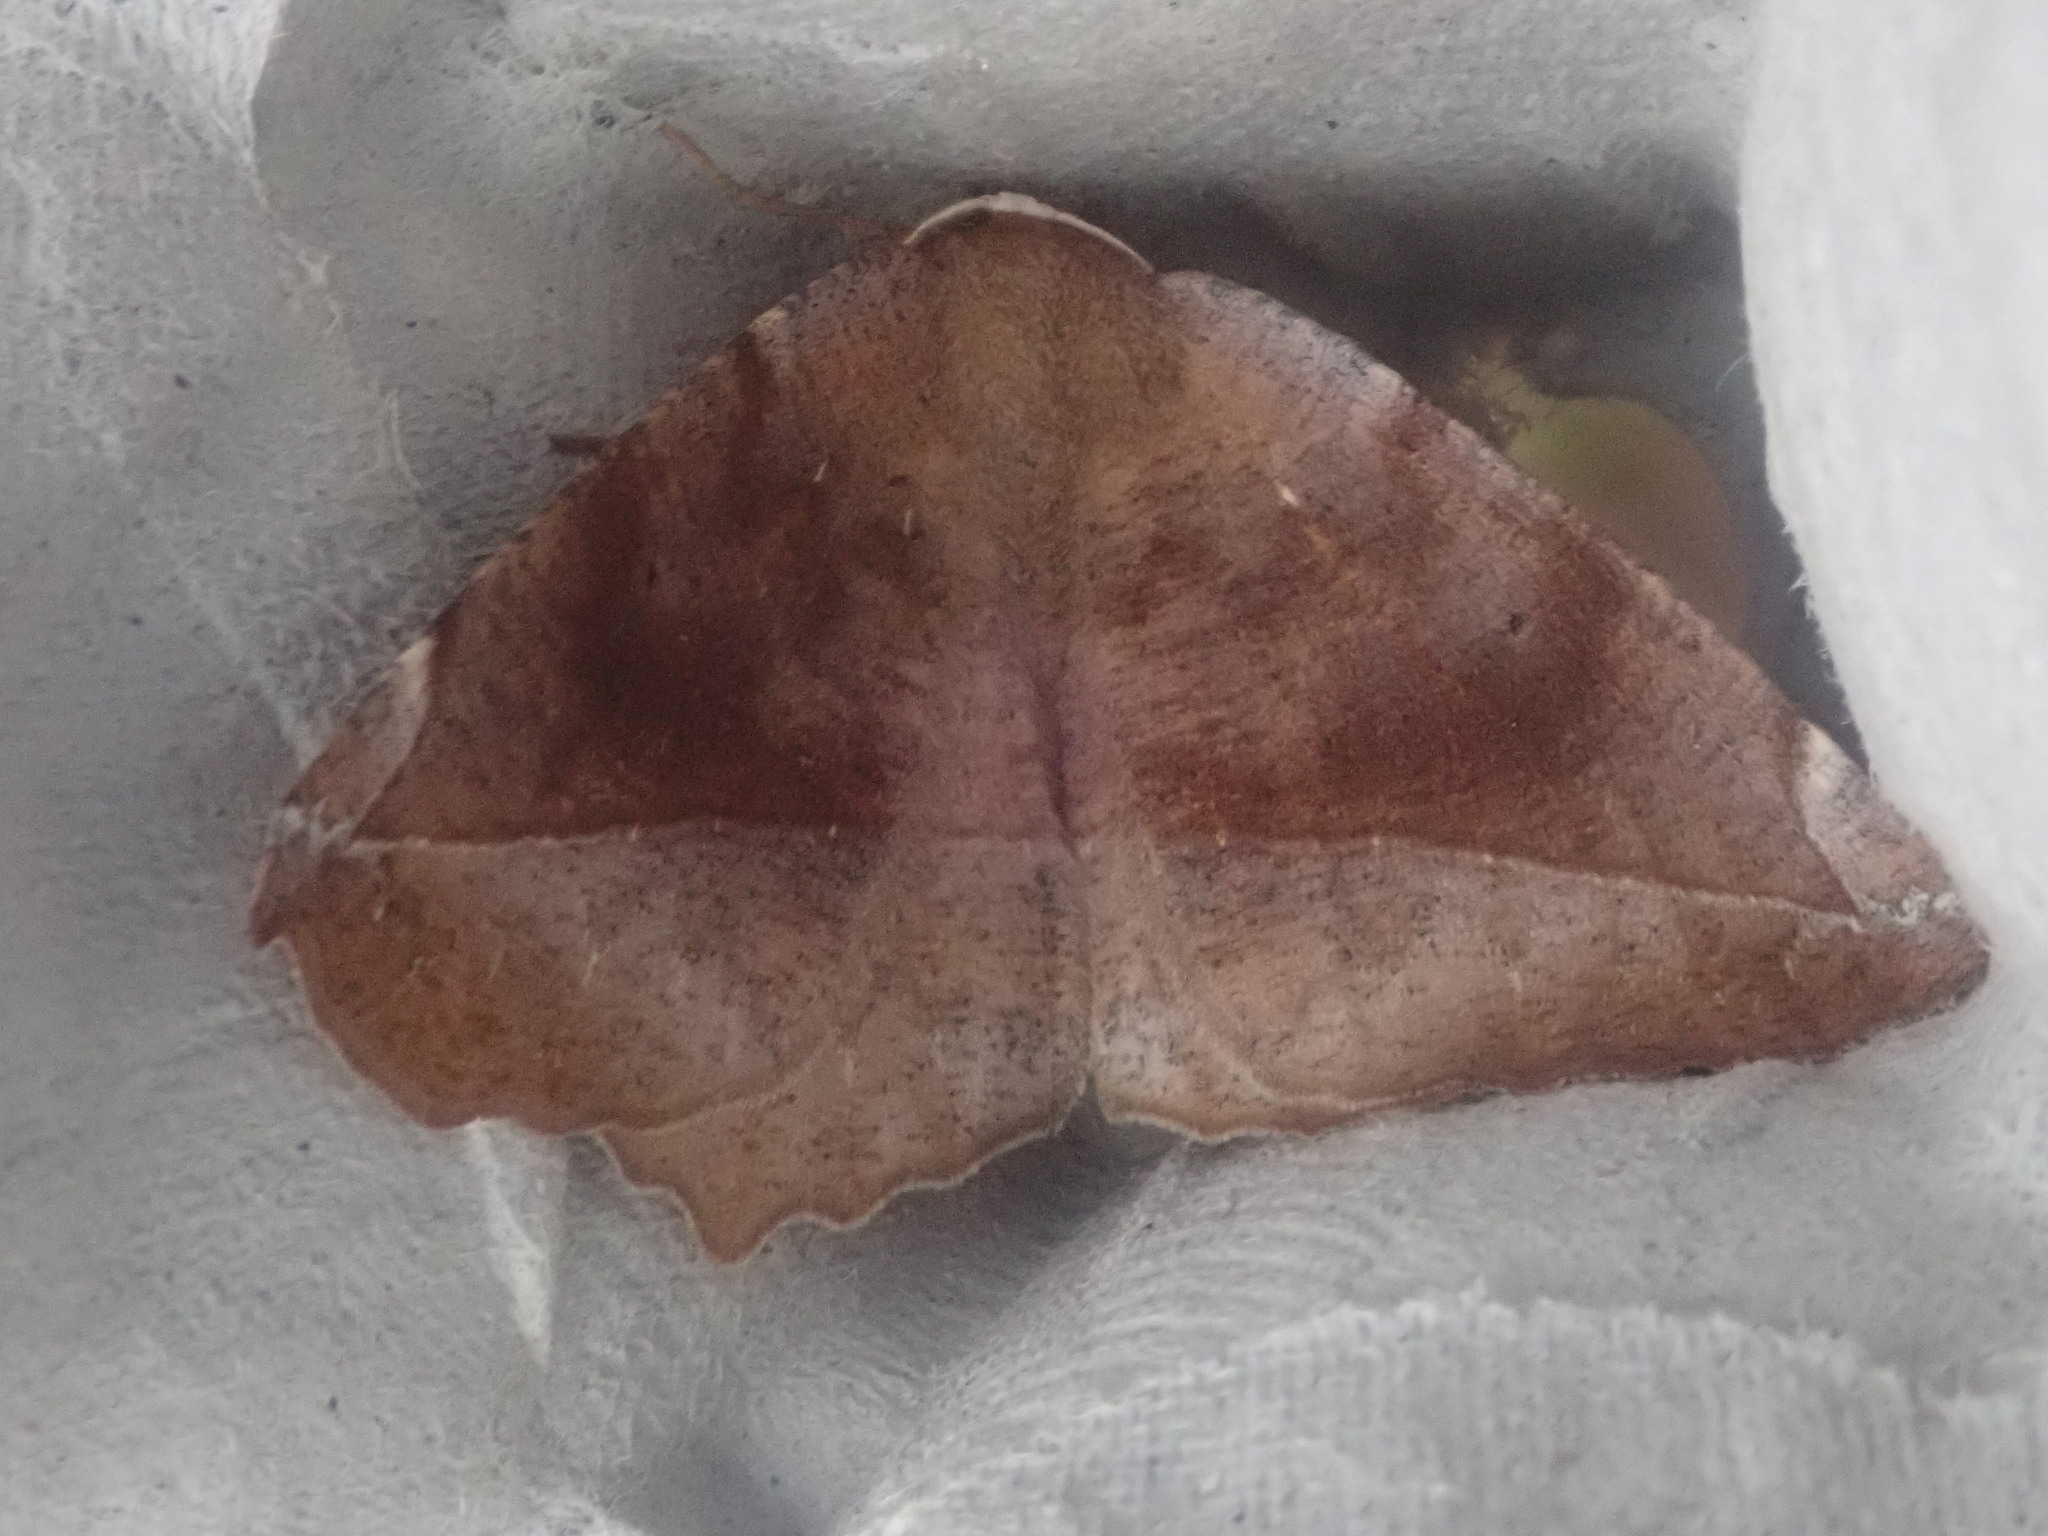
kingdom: Animalia
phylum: Arthropoda
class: Insecta
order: Lepidoptera
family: Geometridae
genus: Eutrapela
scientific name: Eutrapela clemataria
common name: Curved-toothed geometer
